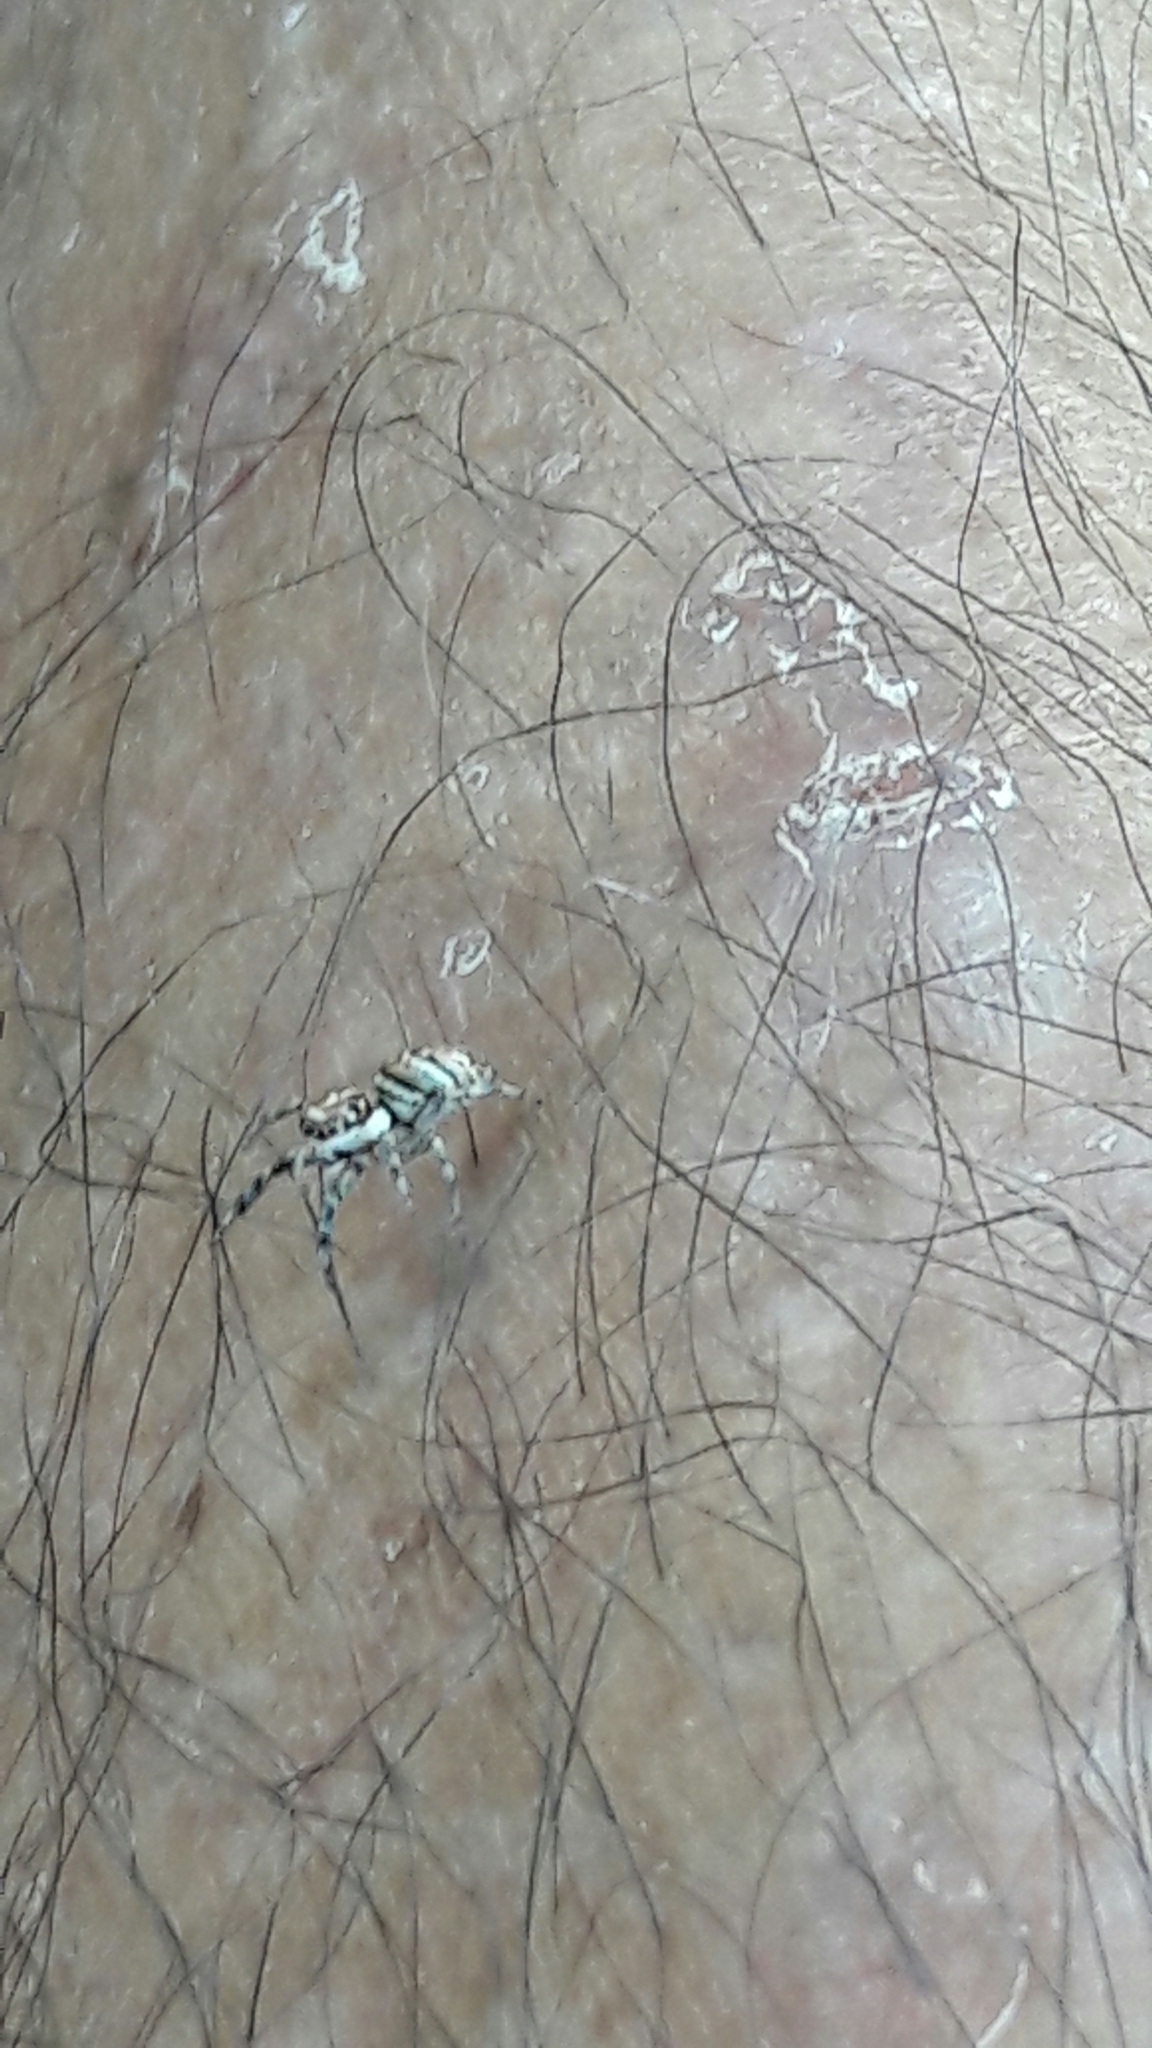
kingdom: Animalia
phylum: Arthropoda
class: Arachnida
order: Araneae
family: Salticidae
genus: Philira
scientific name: Philira micans
